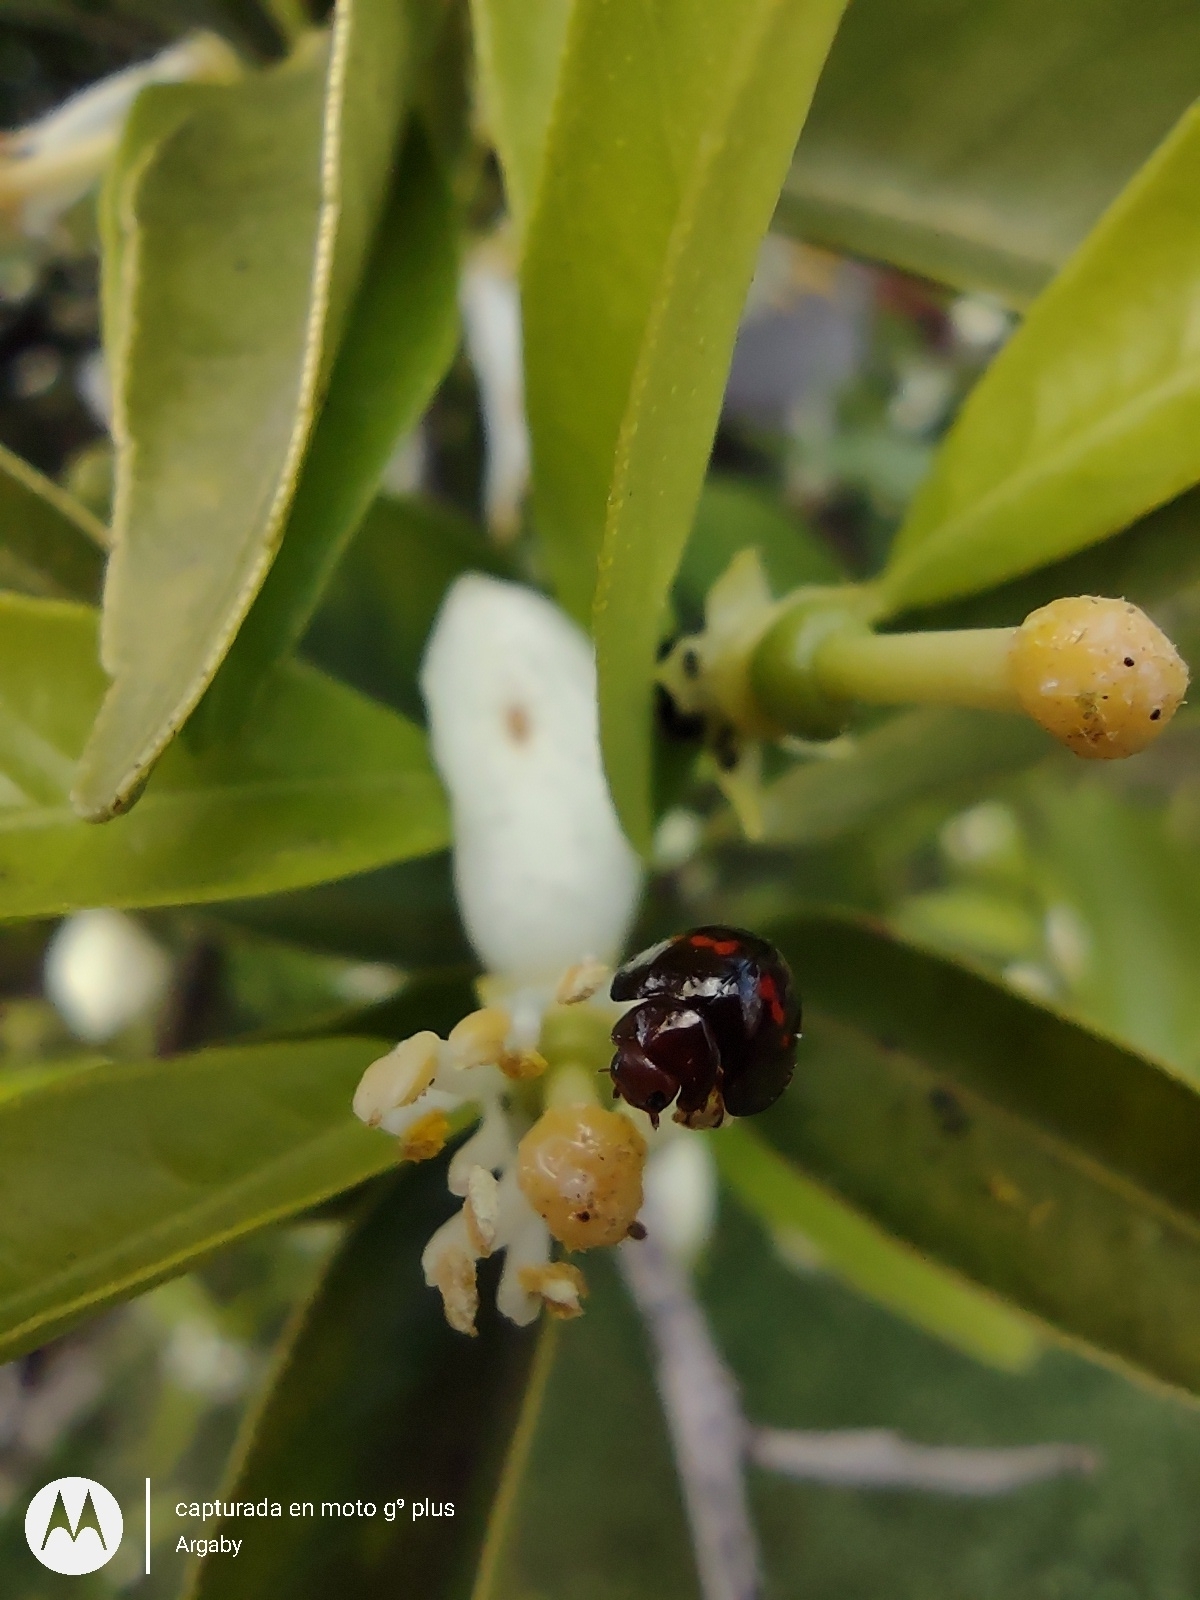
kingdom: Animalia
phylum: Arthropoda
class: Insecta
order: Coleoptera
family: Coccinellidae
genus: Chilocorus
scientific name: Chilocorus bipustulatus
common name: Heather ladybird
